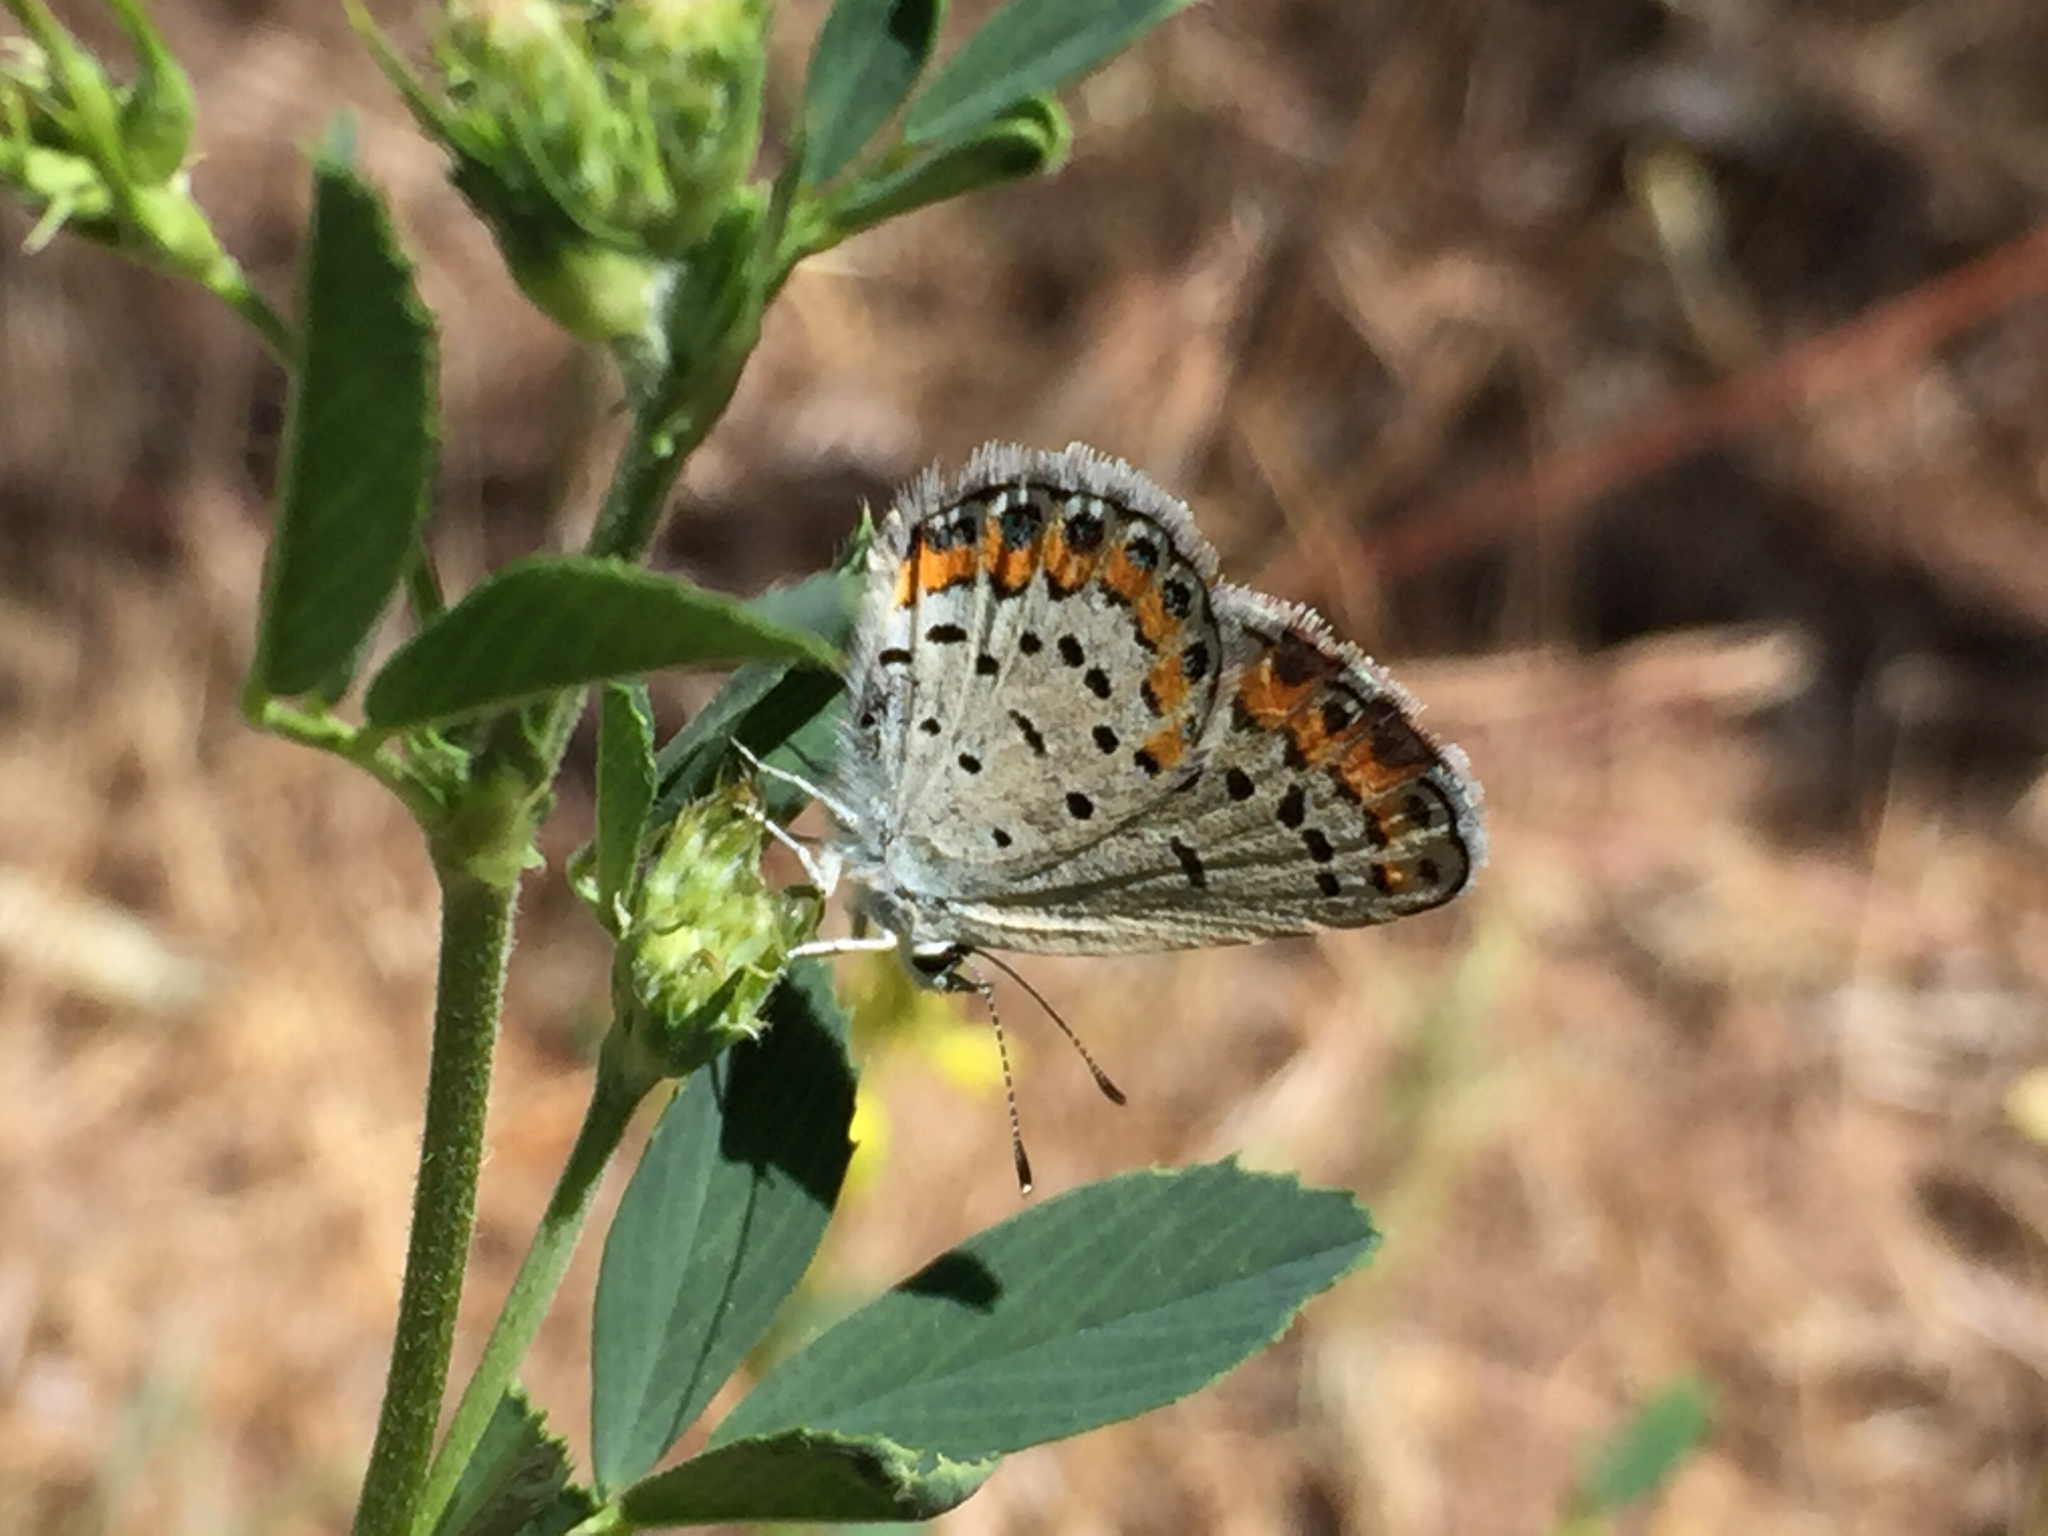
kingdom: Animalia
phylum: Arthropoda
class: Insecta
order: Lepidoptera
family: Lycaenidae
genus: Lycaeides
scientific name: Lycaeides melissa
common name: Melissa blue
